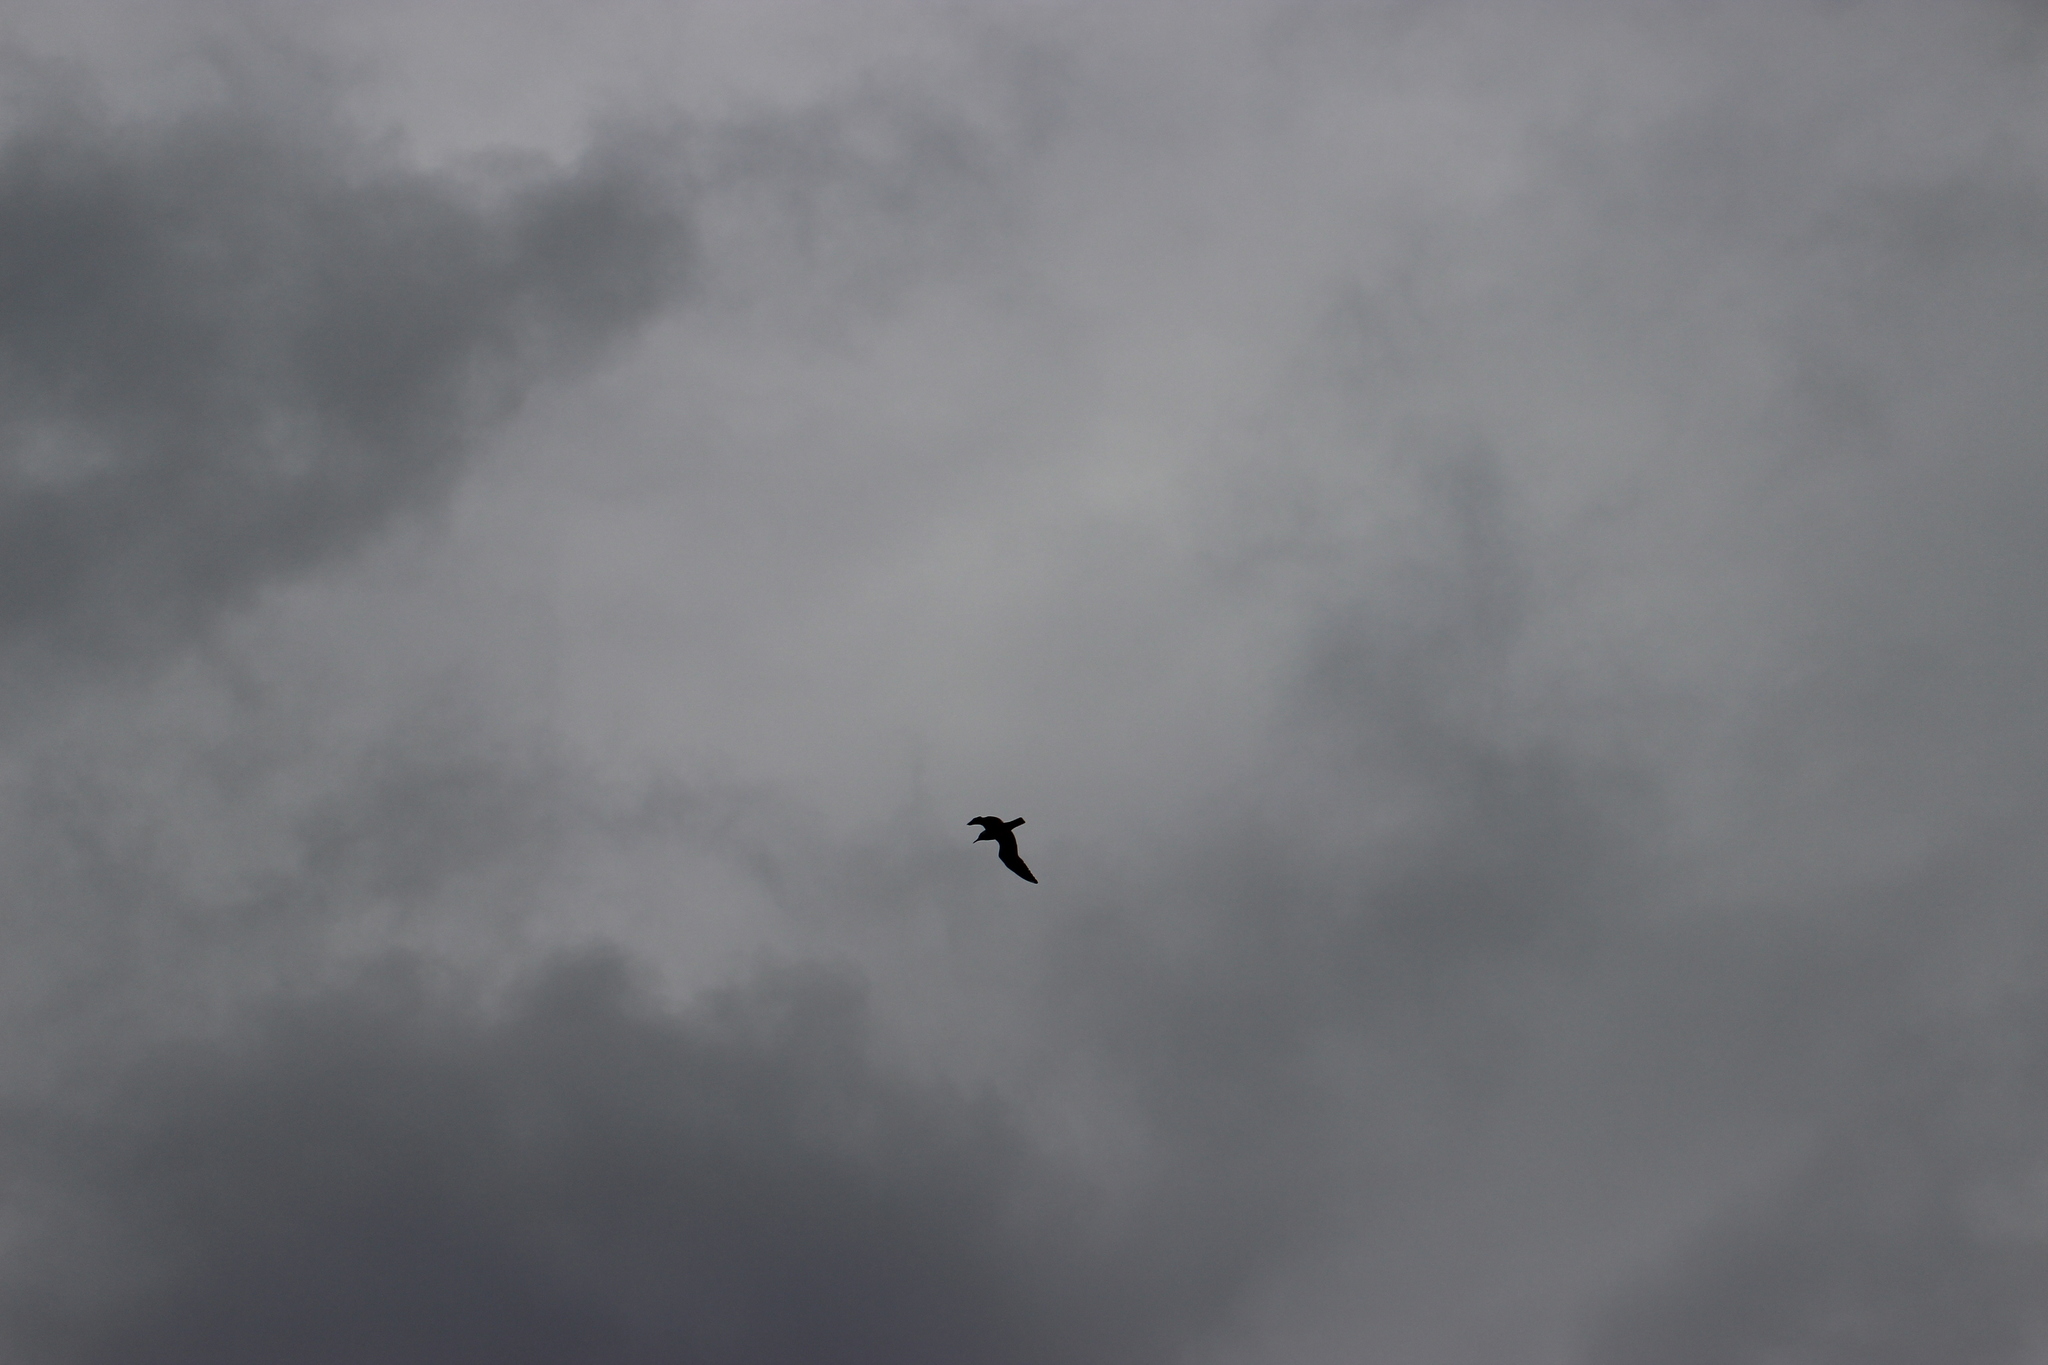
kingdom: Animalia
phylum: Chordata
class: Aves
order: Charadriiformes
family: Laridae
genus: Chroicocephalus
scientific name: Chroicocephalus ridibundus
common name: Black-headed gull
